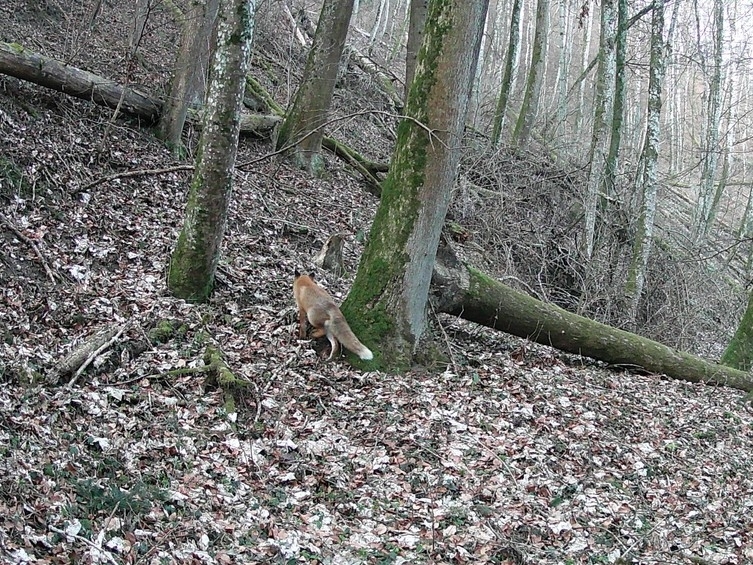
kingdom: Animalia
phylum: Chordata
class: Mammalia
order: Carnivora
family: Canidae
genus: Vulpes
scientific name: Vulpes vulpes
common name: Red fox
